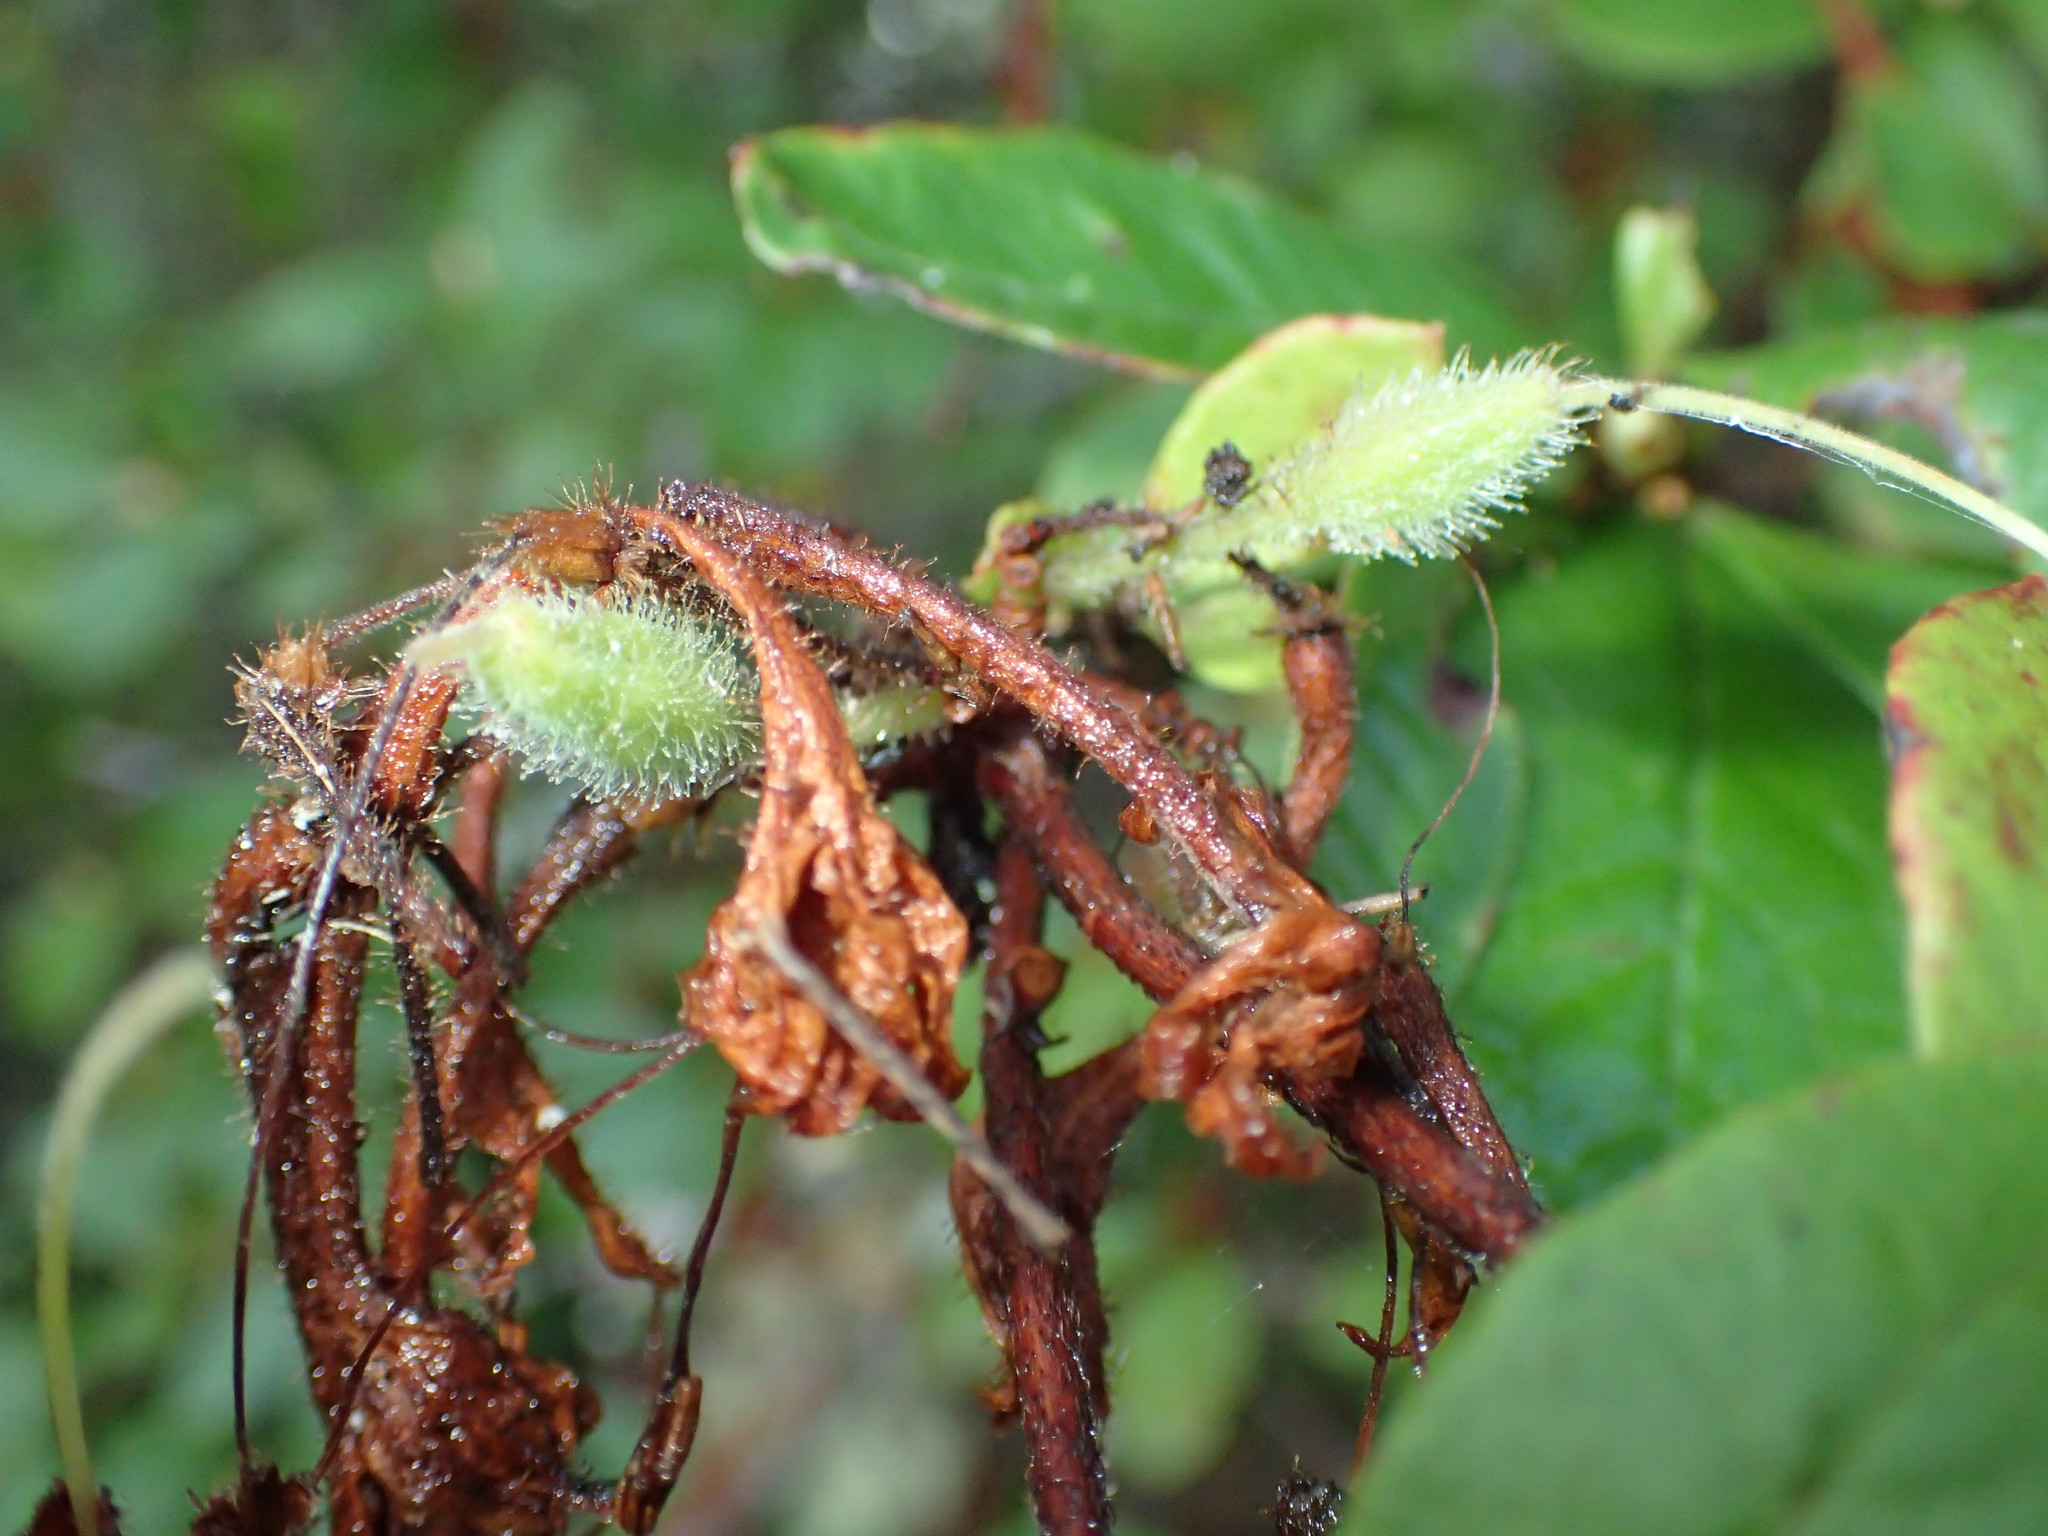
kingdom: Plantae
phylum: Tracheophyta
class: Magnoliopsida
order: Ericales
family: Ericaceae
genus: Rhododendron
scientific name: Rhododendron serrulatum
